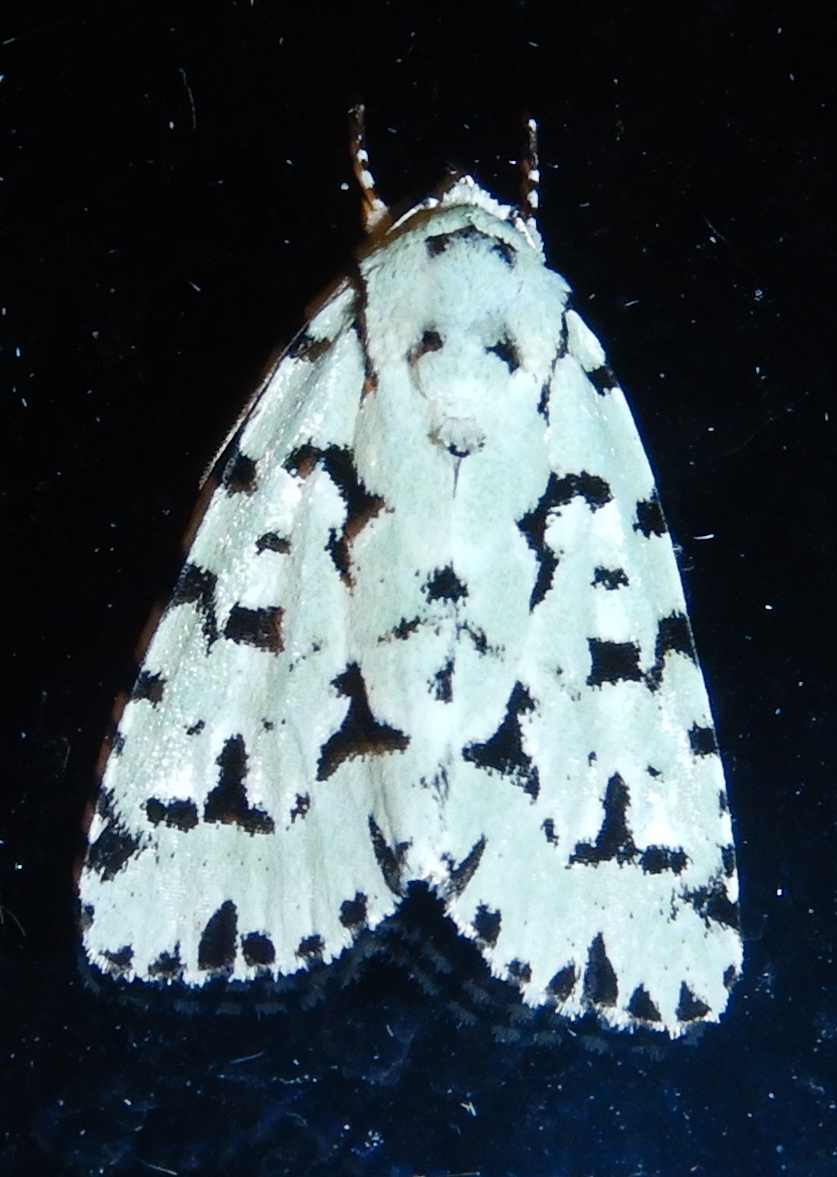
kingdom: Animalia
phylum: Arthropoda
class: Insecta
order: Lepidoptera
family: Noctuidae
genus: Acronicta
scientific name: Acronicta fallax
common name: Green marvel
